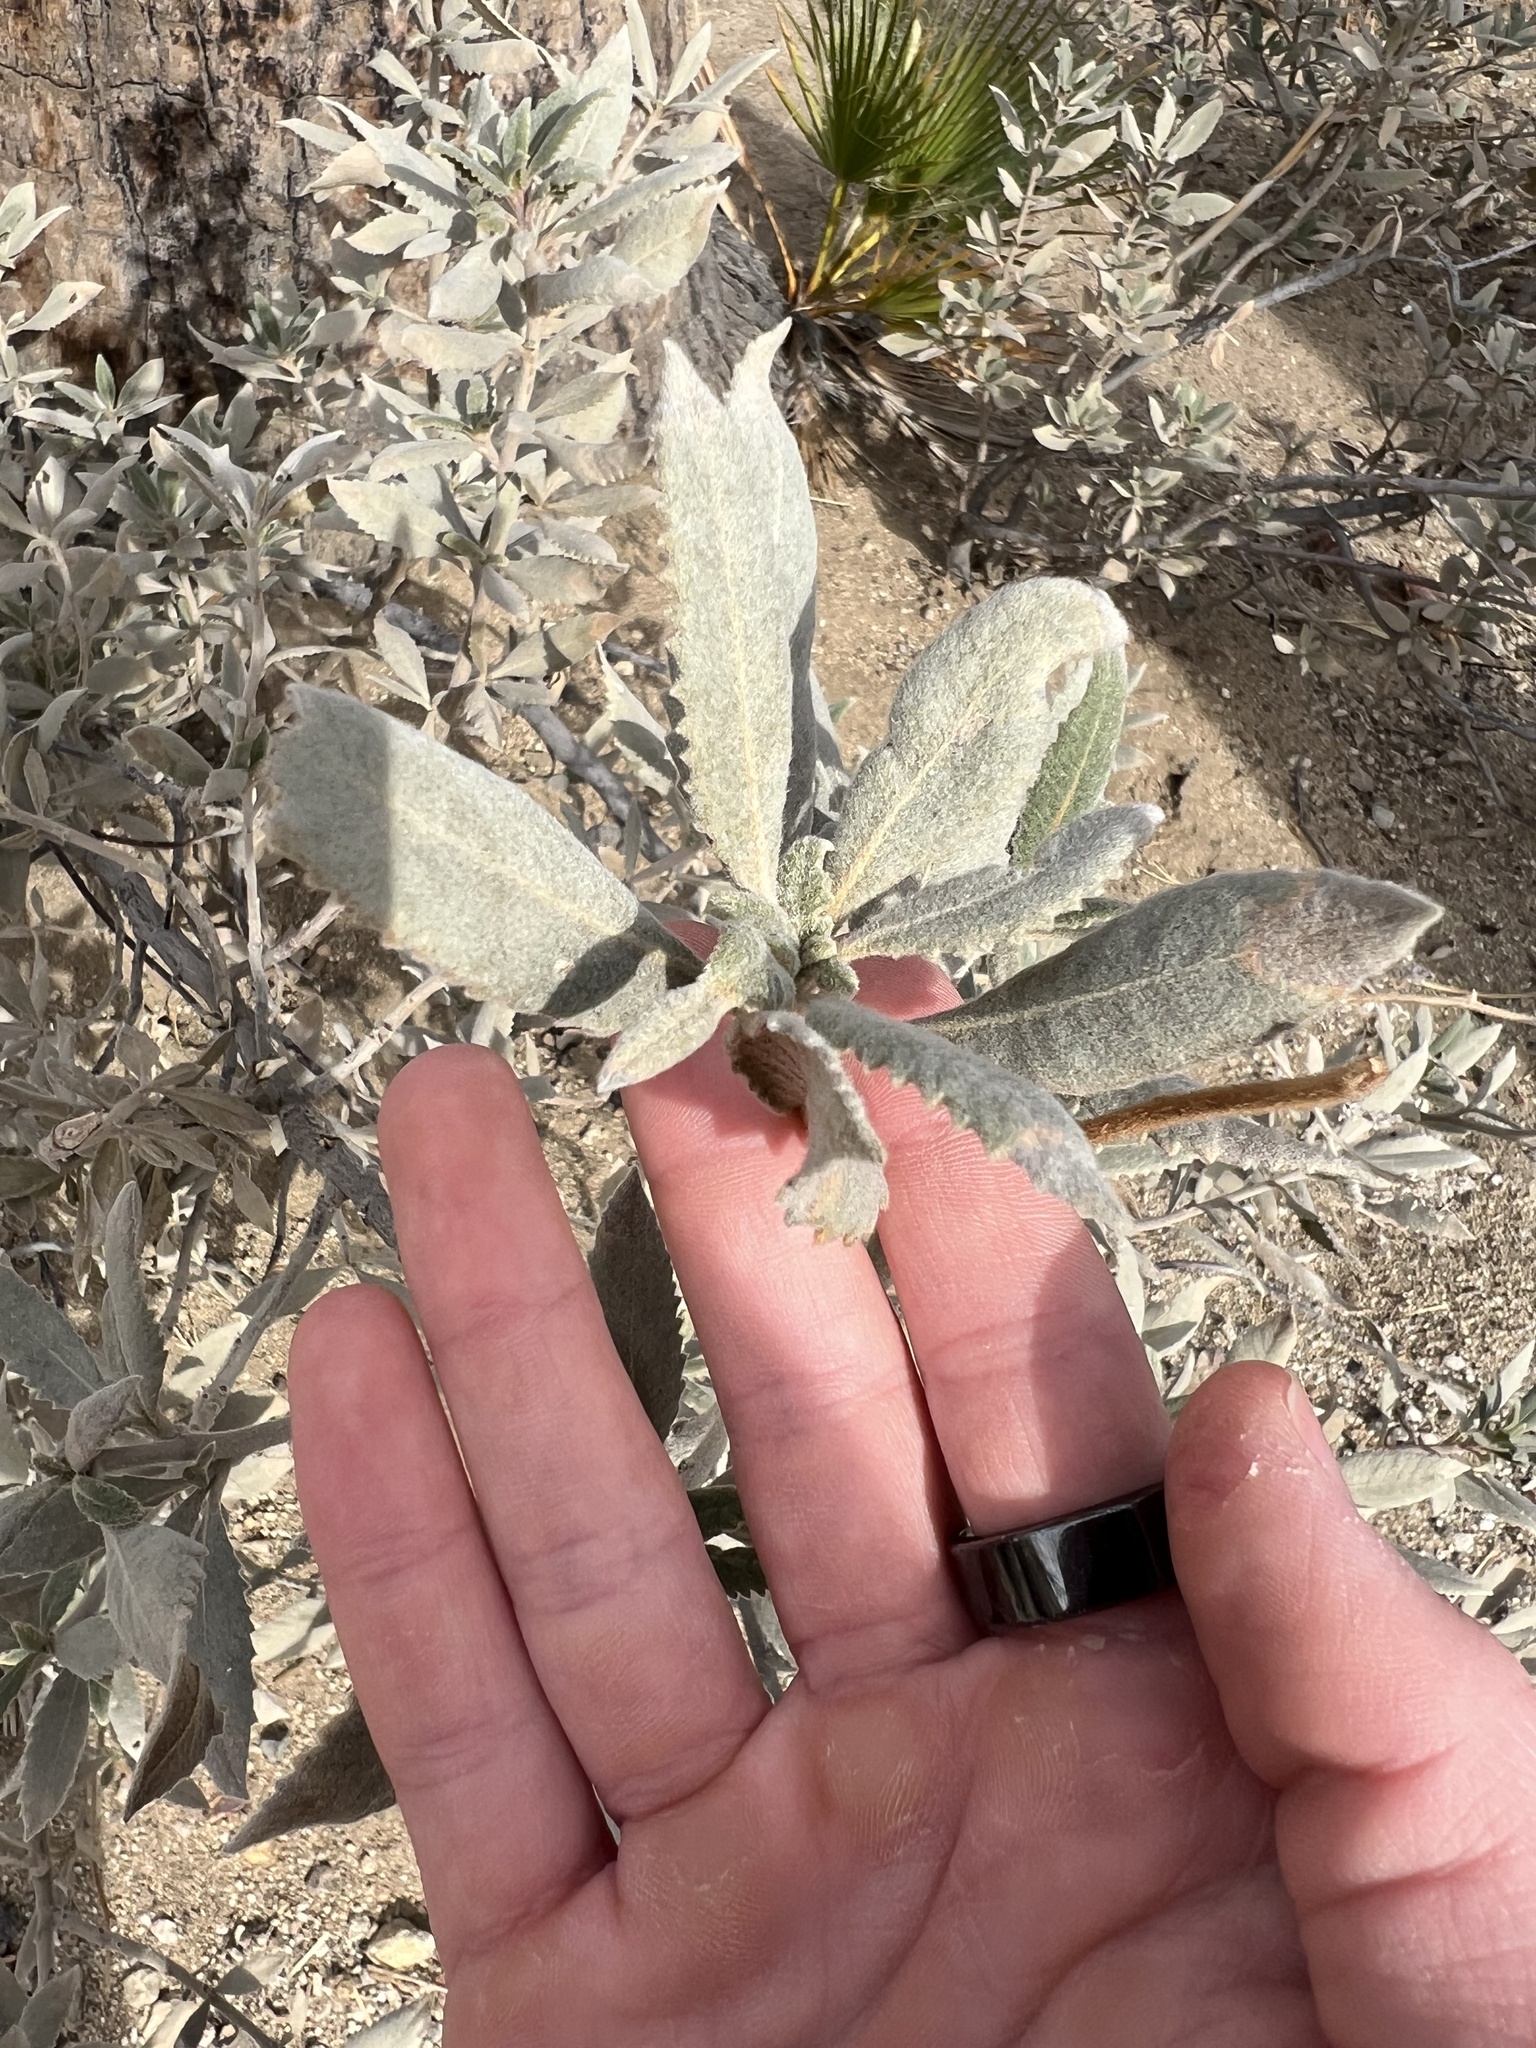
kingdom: Plantae
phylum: Tracheophyta
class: Magnoliopsida
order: Boraginales
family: Namaceae
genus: Eriodictyon
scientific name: Eriodictyon crassifolium
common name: Thick-leaf yerba-santa
